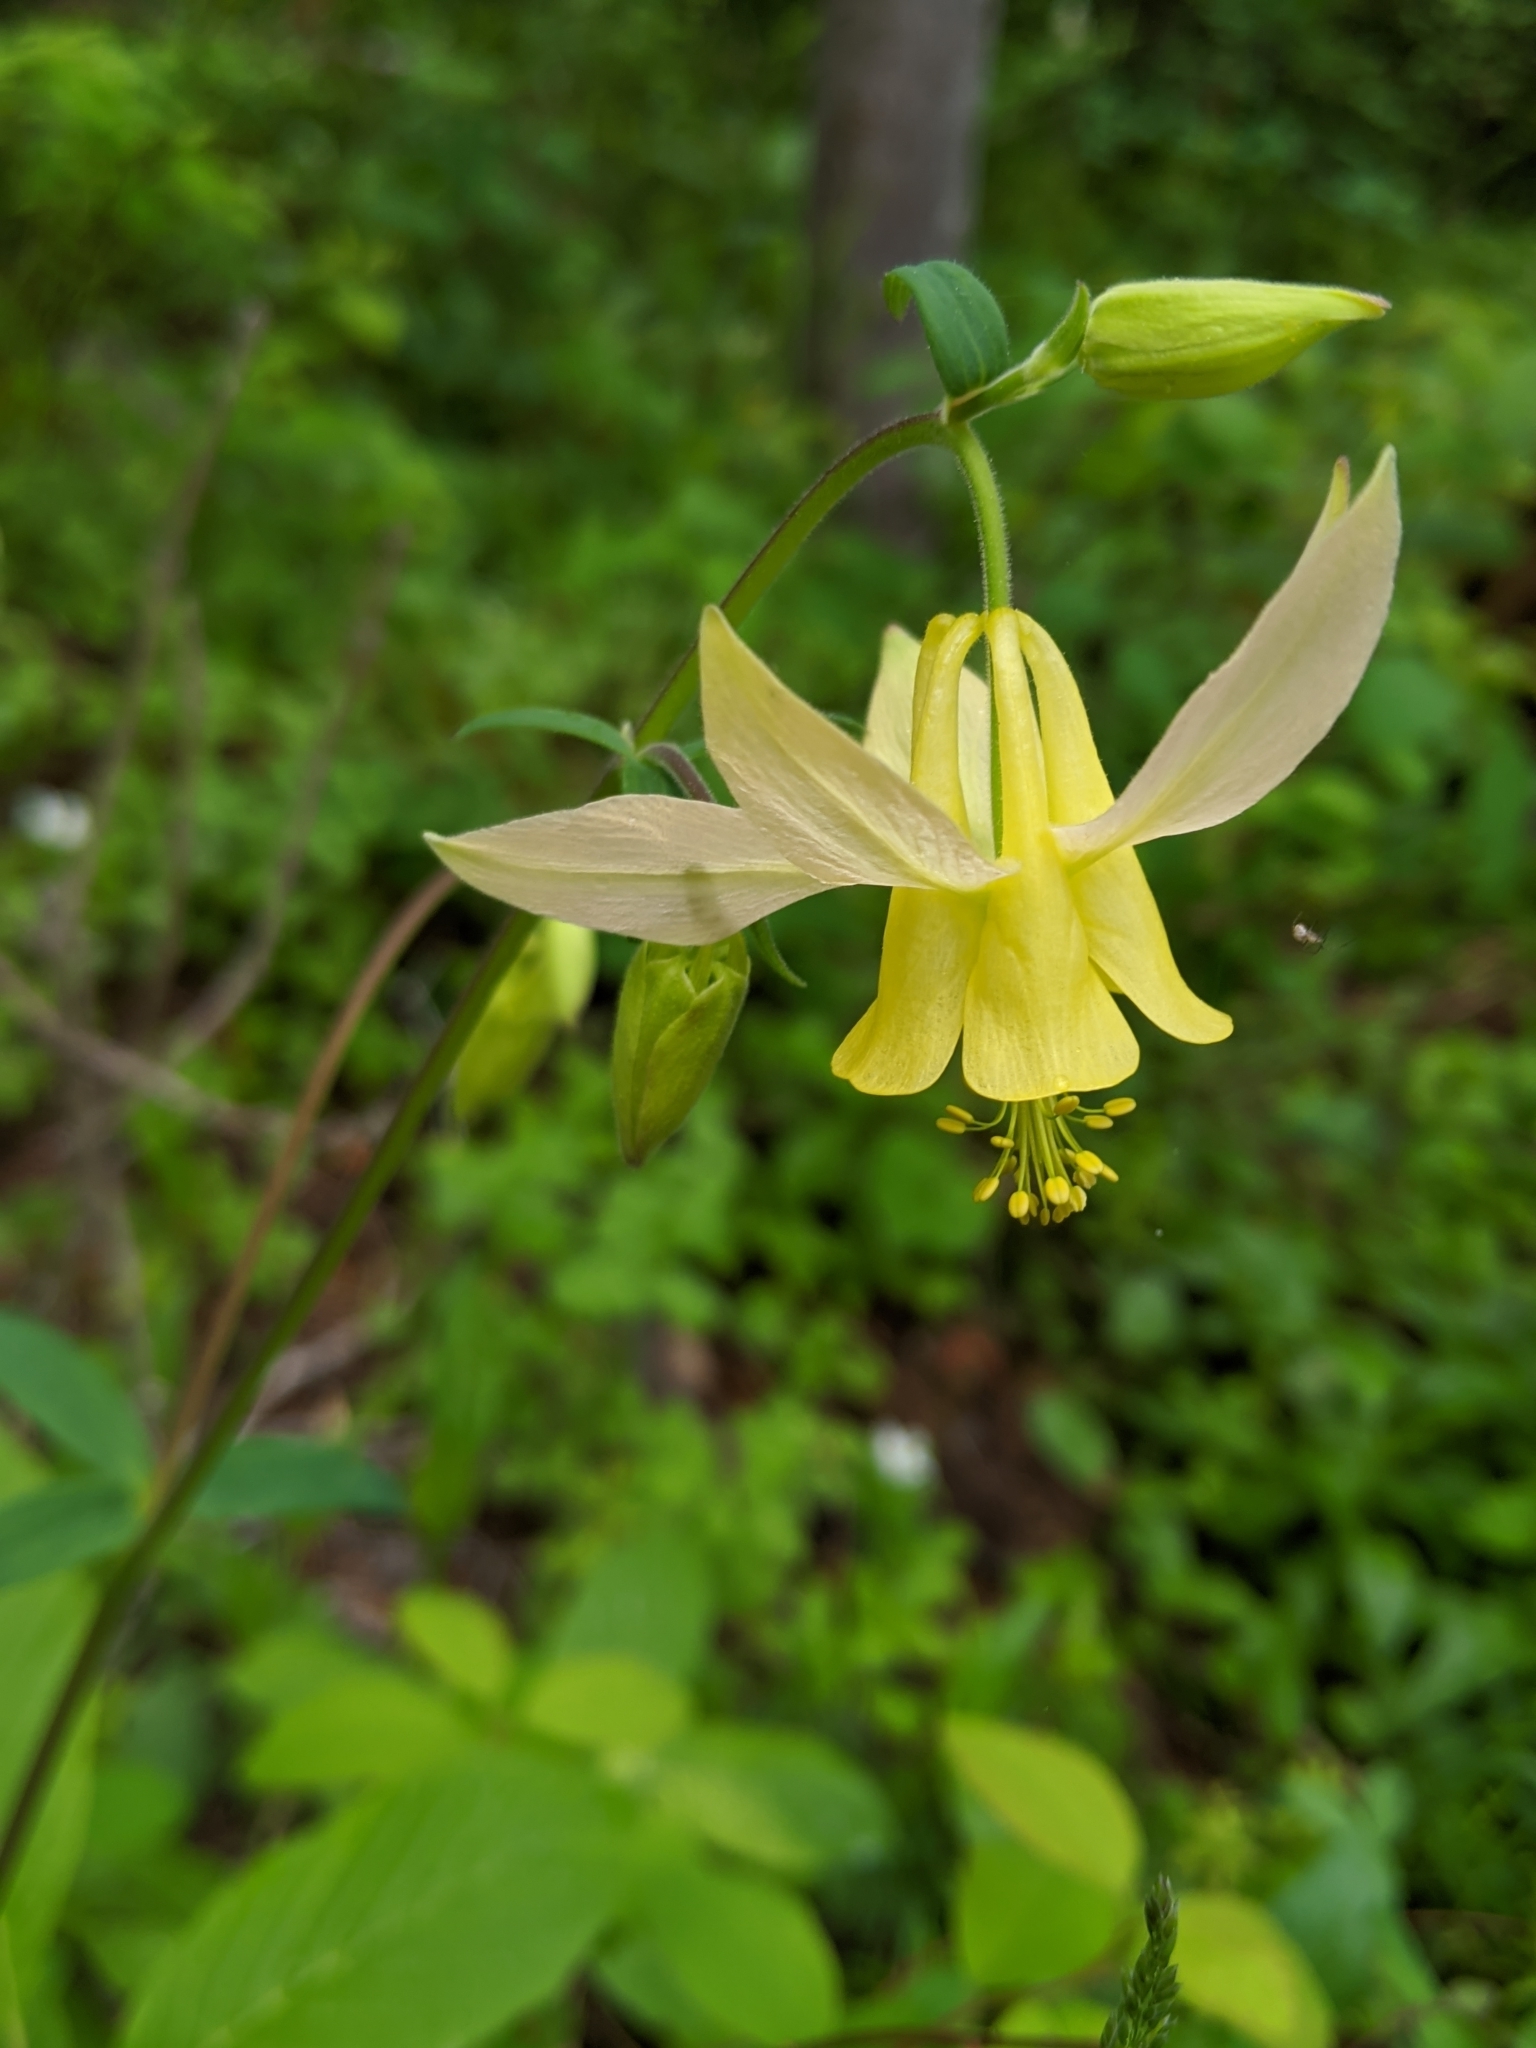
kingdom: Plantae
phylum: Tracheophyta
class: Magnoliopsida
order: Ranunculales
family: Ranunculaceae
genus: Aquilegia
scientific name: Aquilegia flavescens
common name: Yellow columbine
